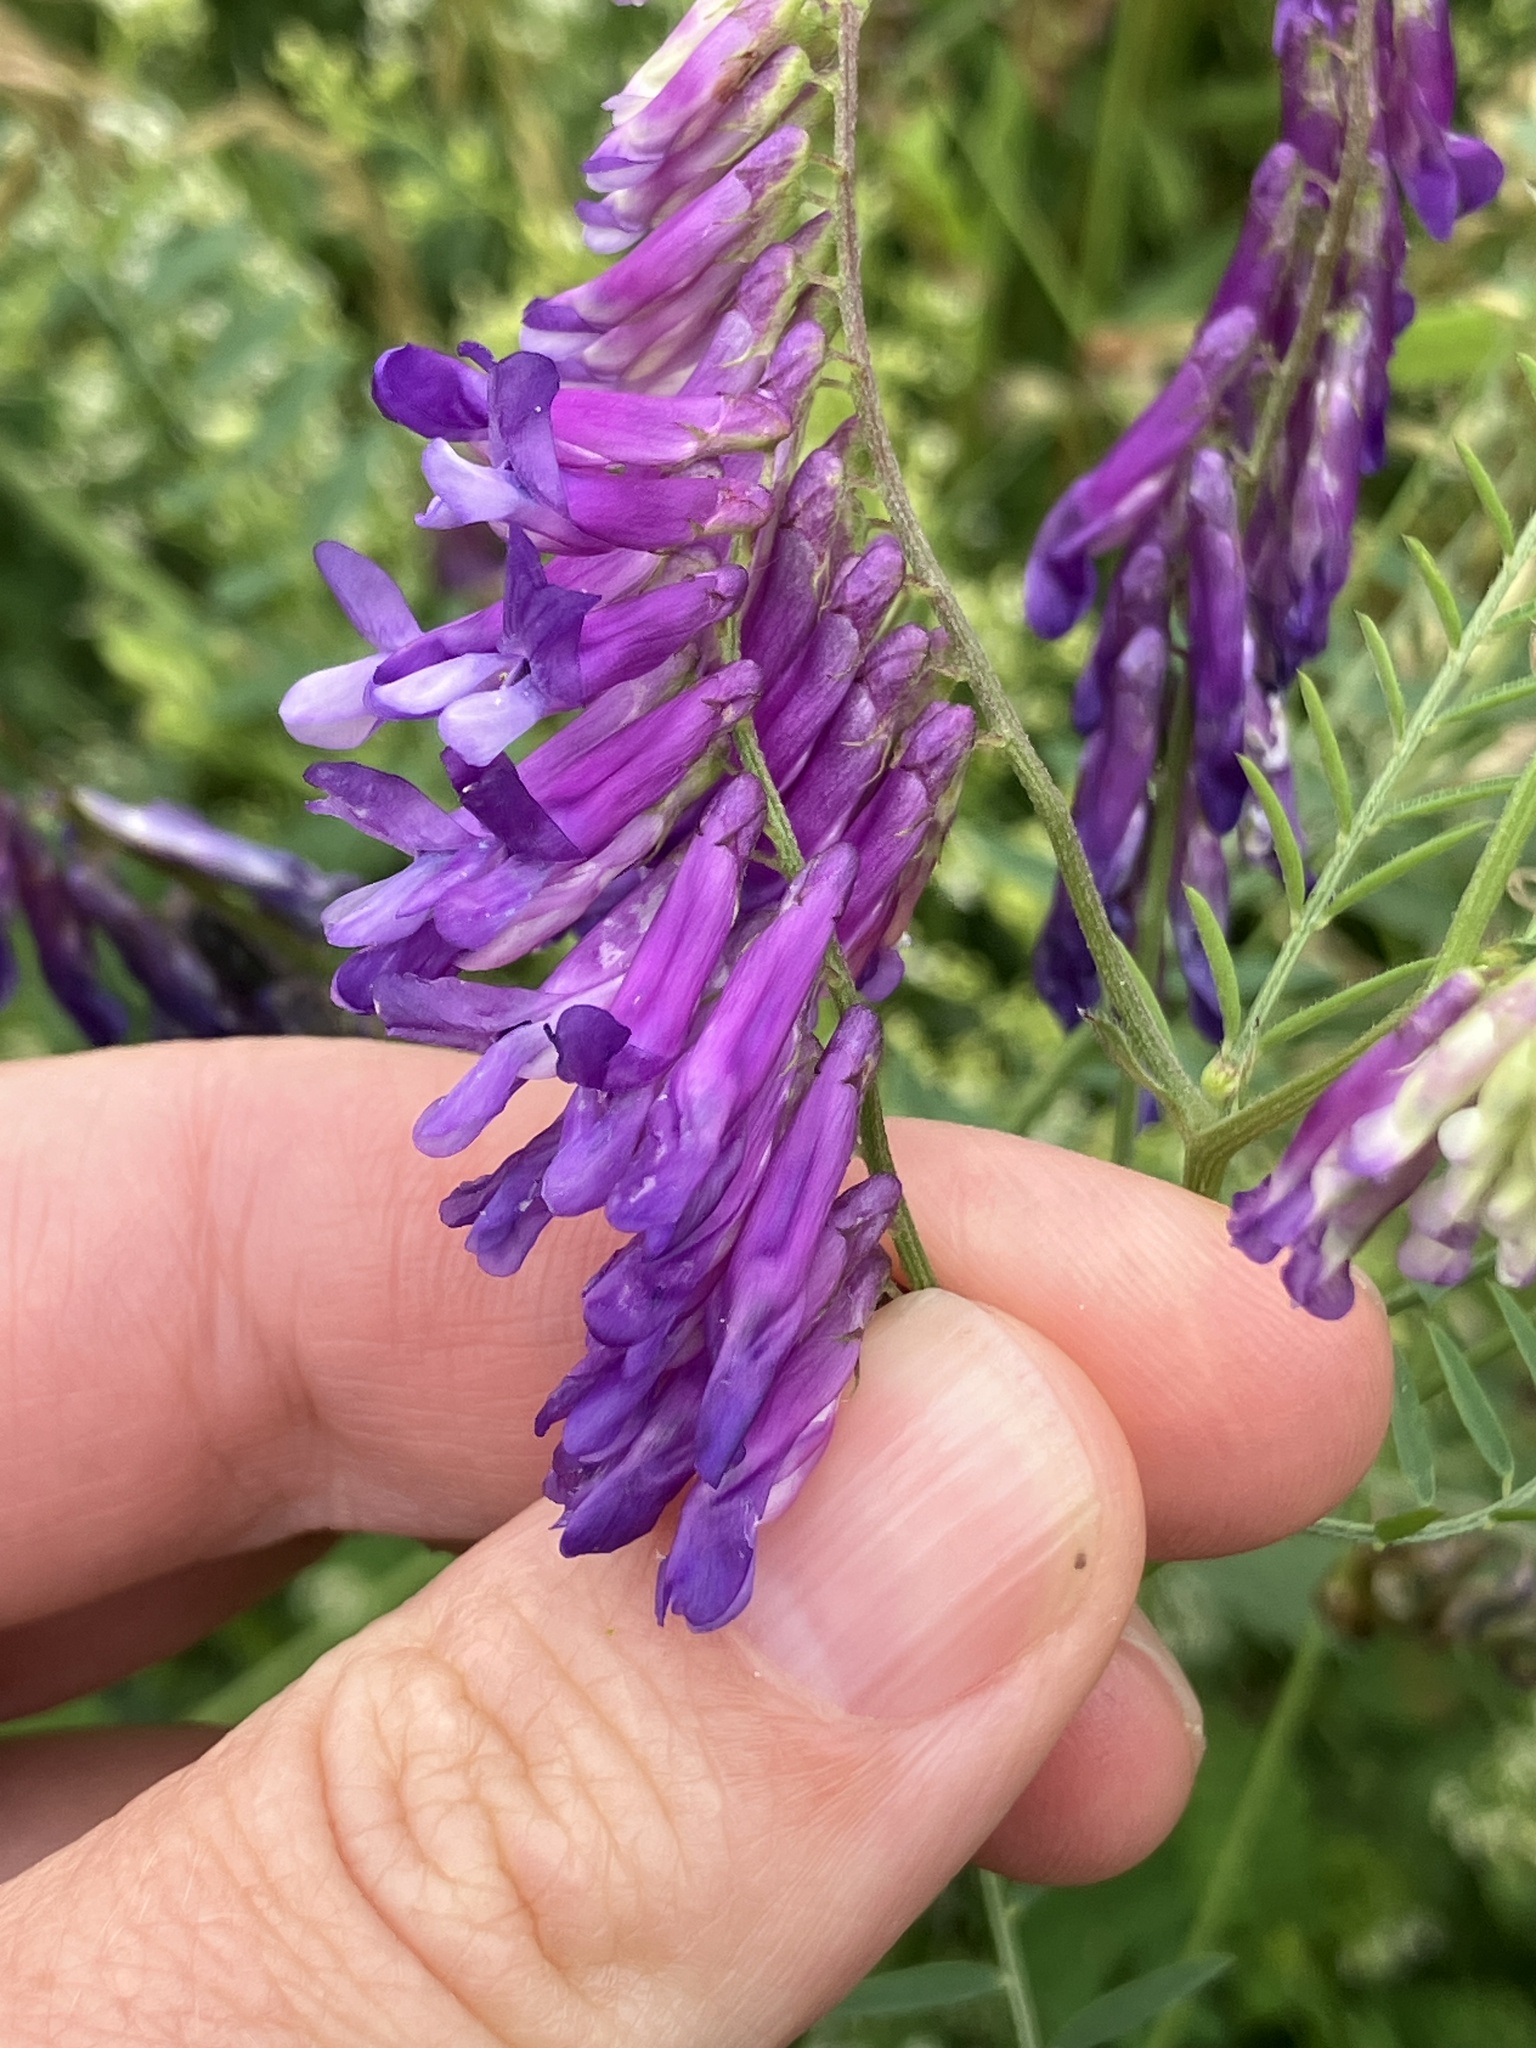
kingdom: Plantae
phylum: Tracheophyta
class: Magnoliopsida
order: Fabales
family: Fabaceae
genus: Vicia
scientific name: Vicia villosa
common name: Fodder vetch
